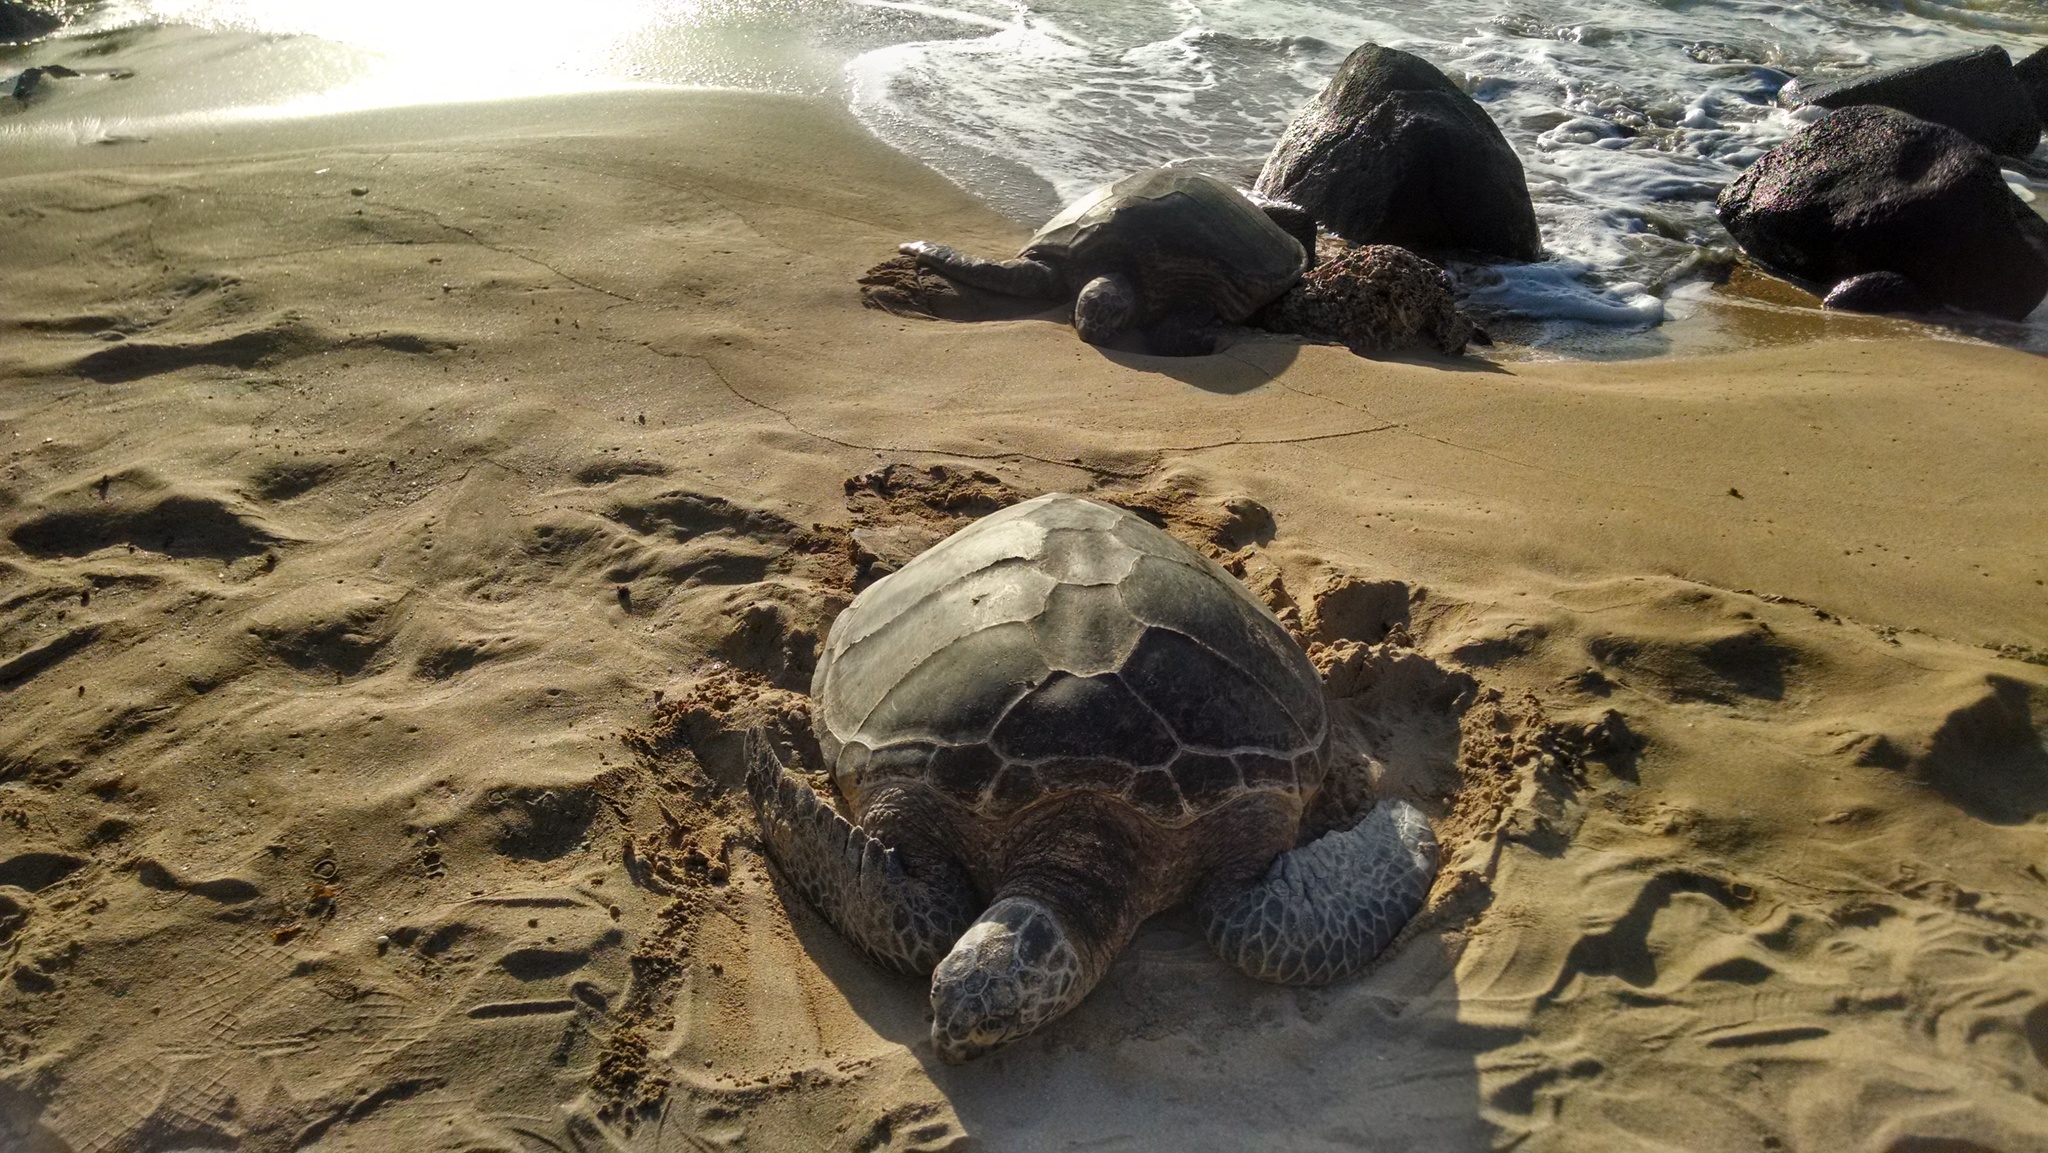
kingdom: Animalia
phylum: Chordata
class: Testudines
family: Cheloniidae
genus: Chelonia
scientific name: Chelonia mydas
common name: Green turtle
